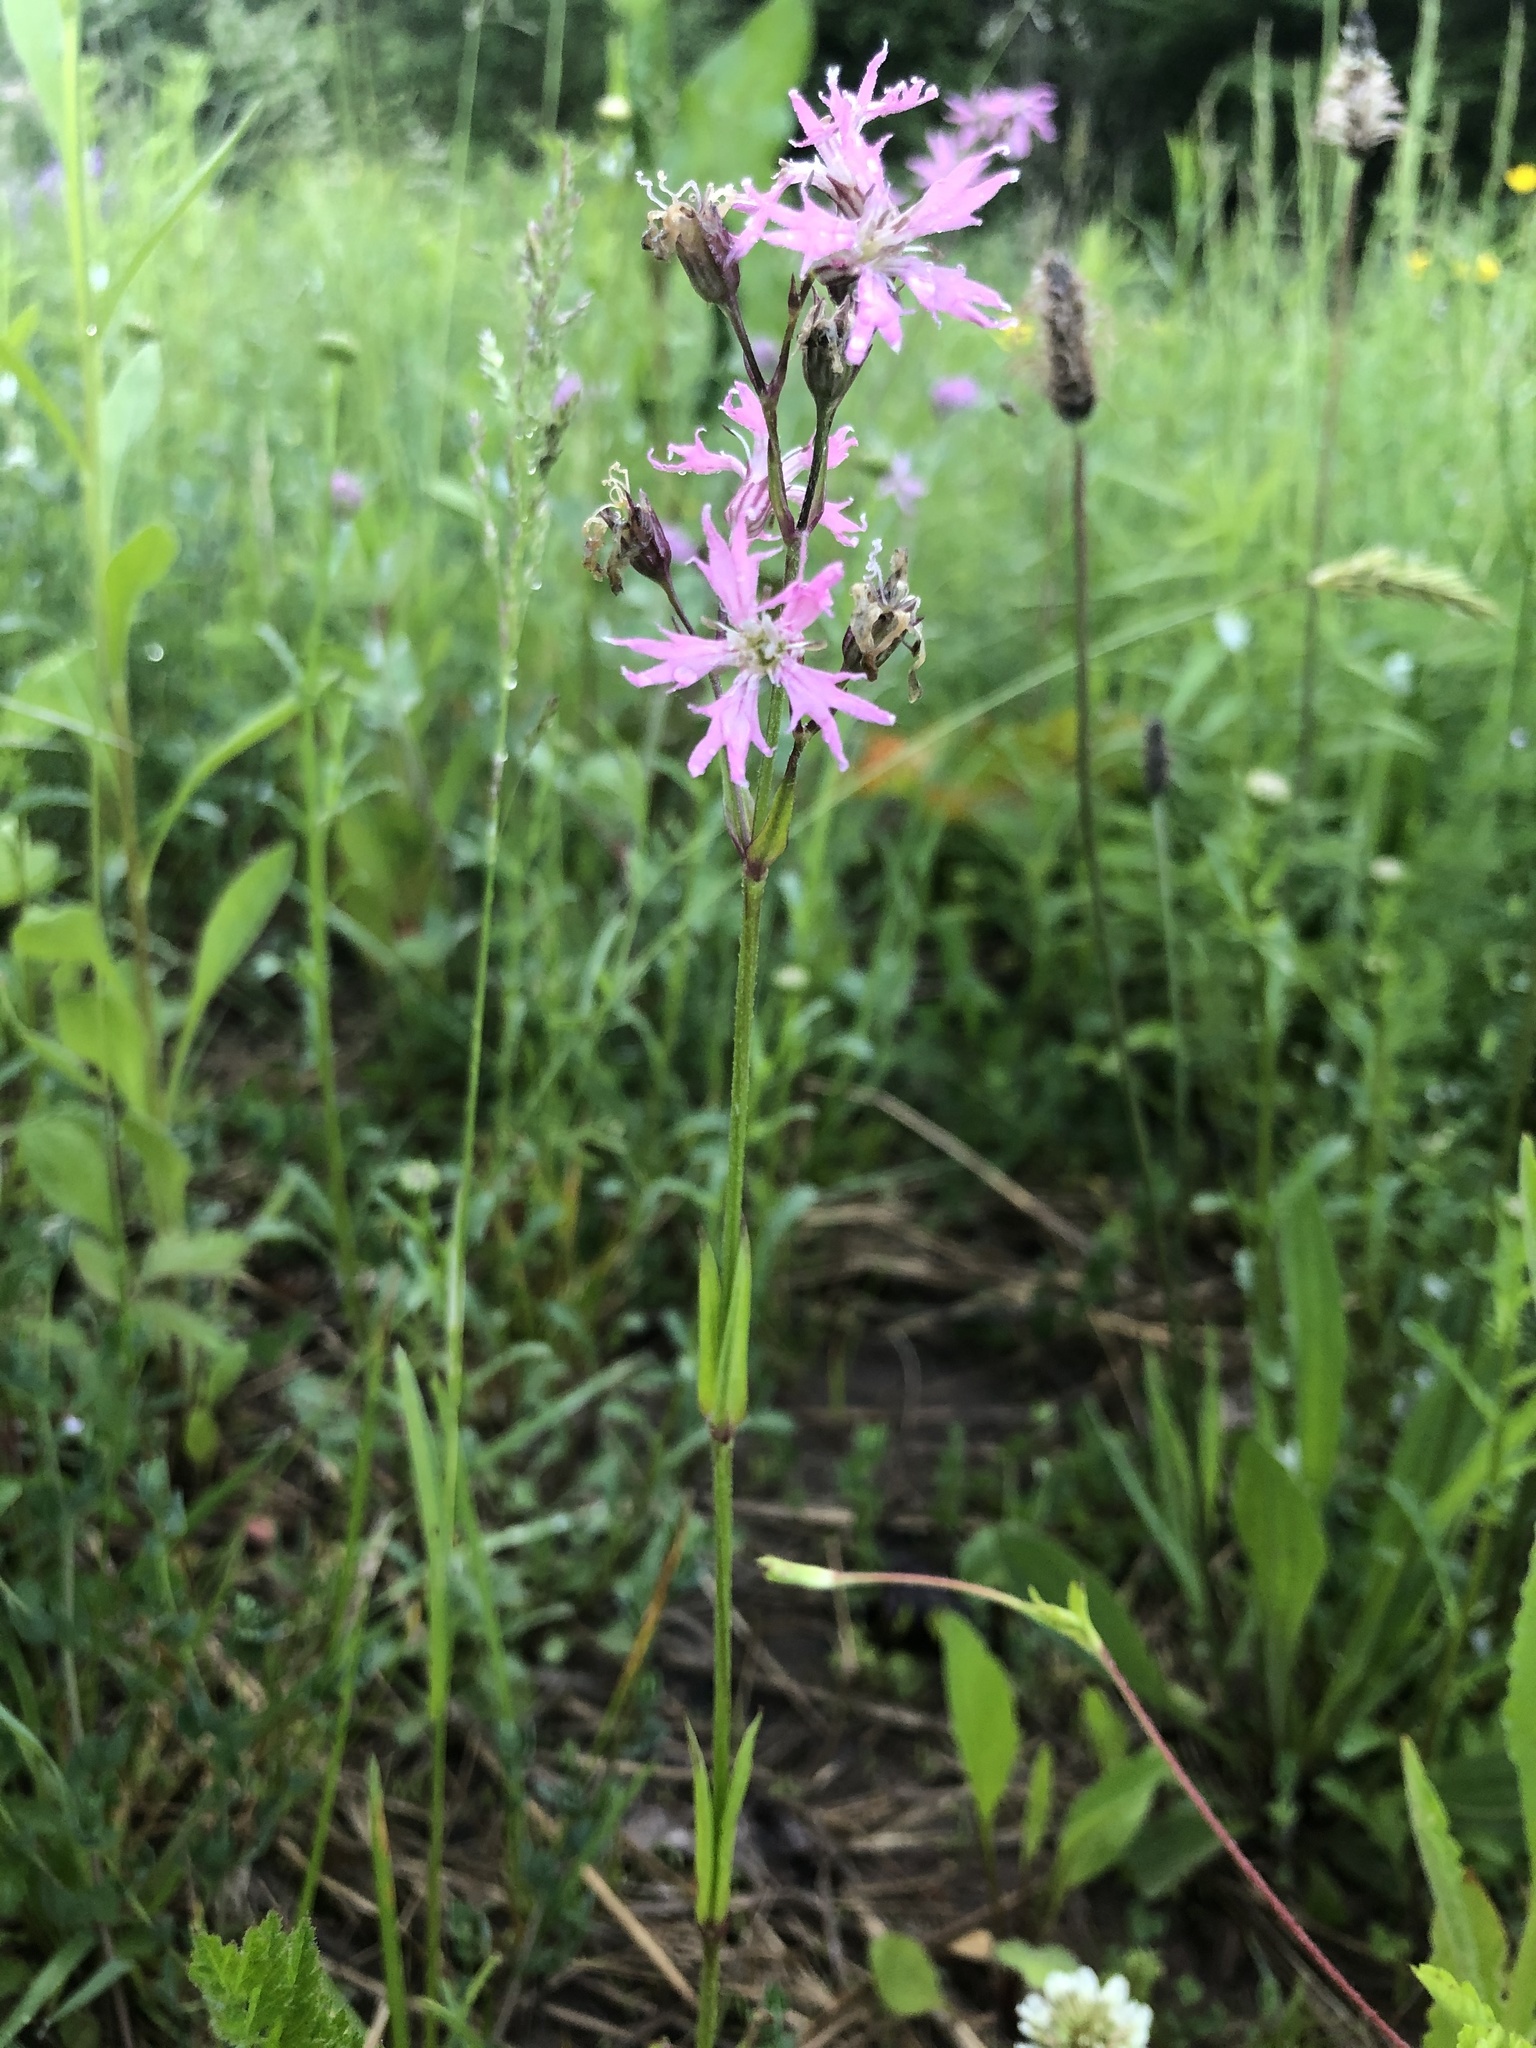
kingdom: Plantae
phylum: Tracheophyta
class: Magnoliopsida
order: Caryophyllales
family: Caryophyllaceae
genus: Silene
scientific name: Silene flos-cuculi
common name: Ragged-robin
